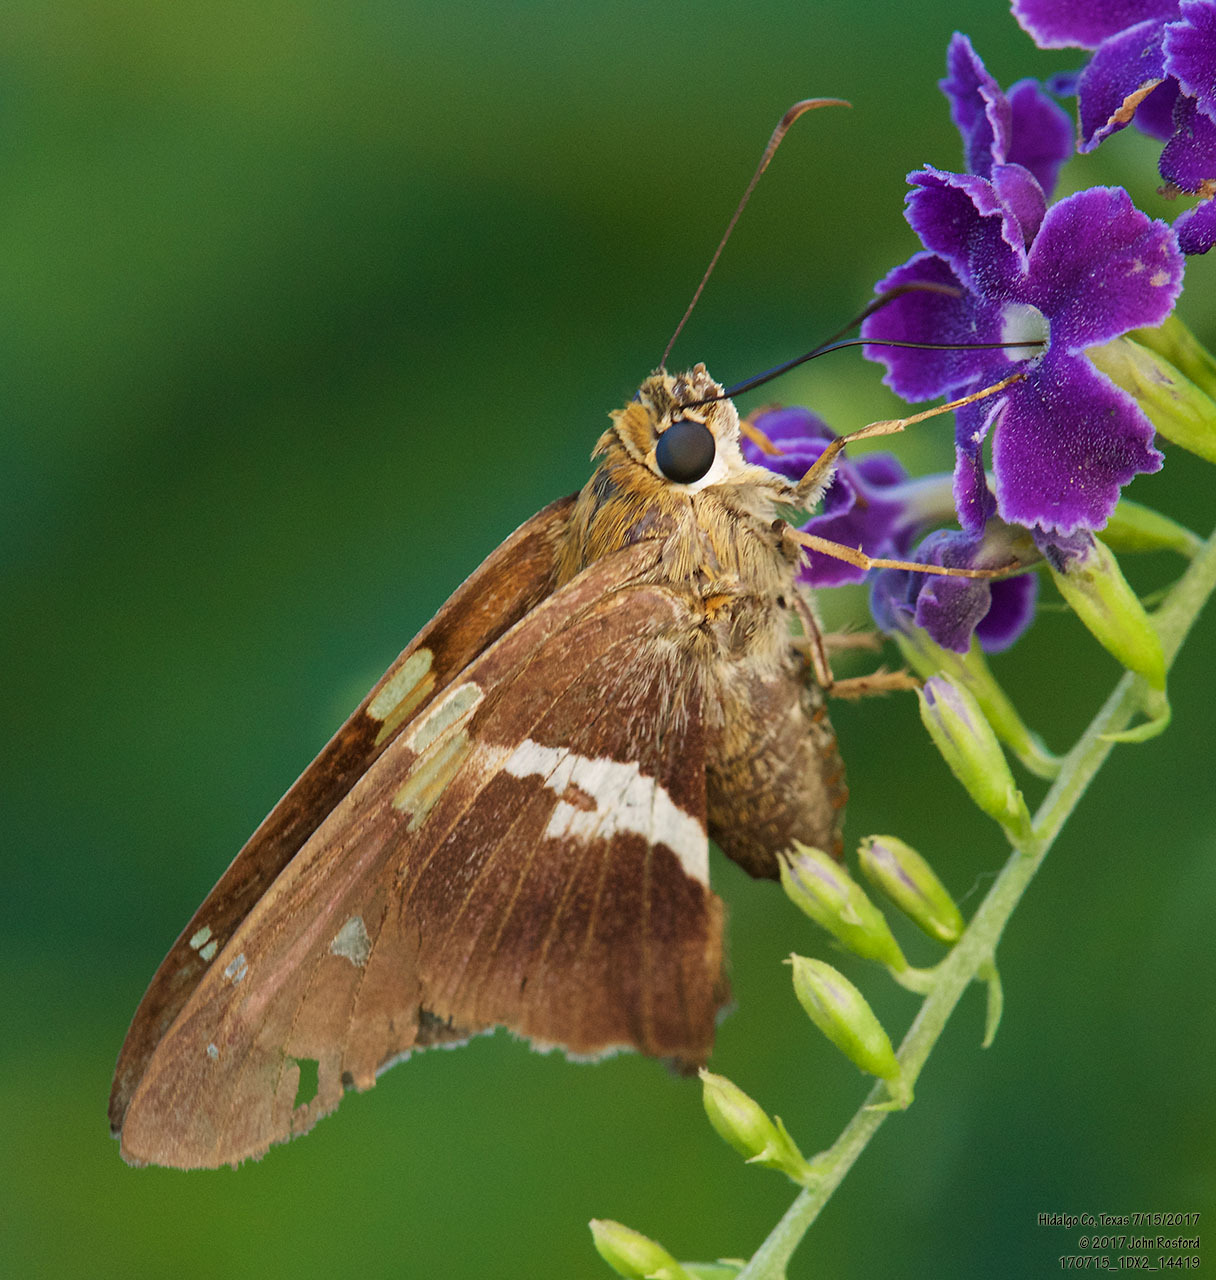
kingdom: Animalia
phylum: Arthropoda
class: Insecta
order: Lepidoptera
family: Hesperiidae
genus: Aguna
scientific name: Aguna asander
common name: Gold-spotted aguna
